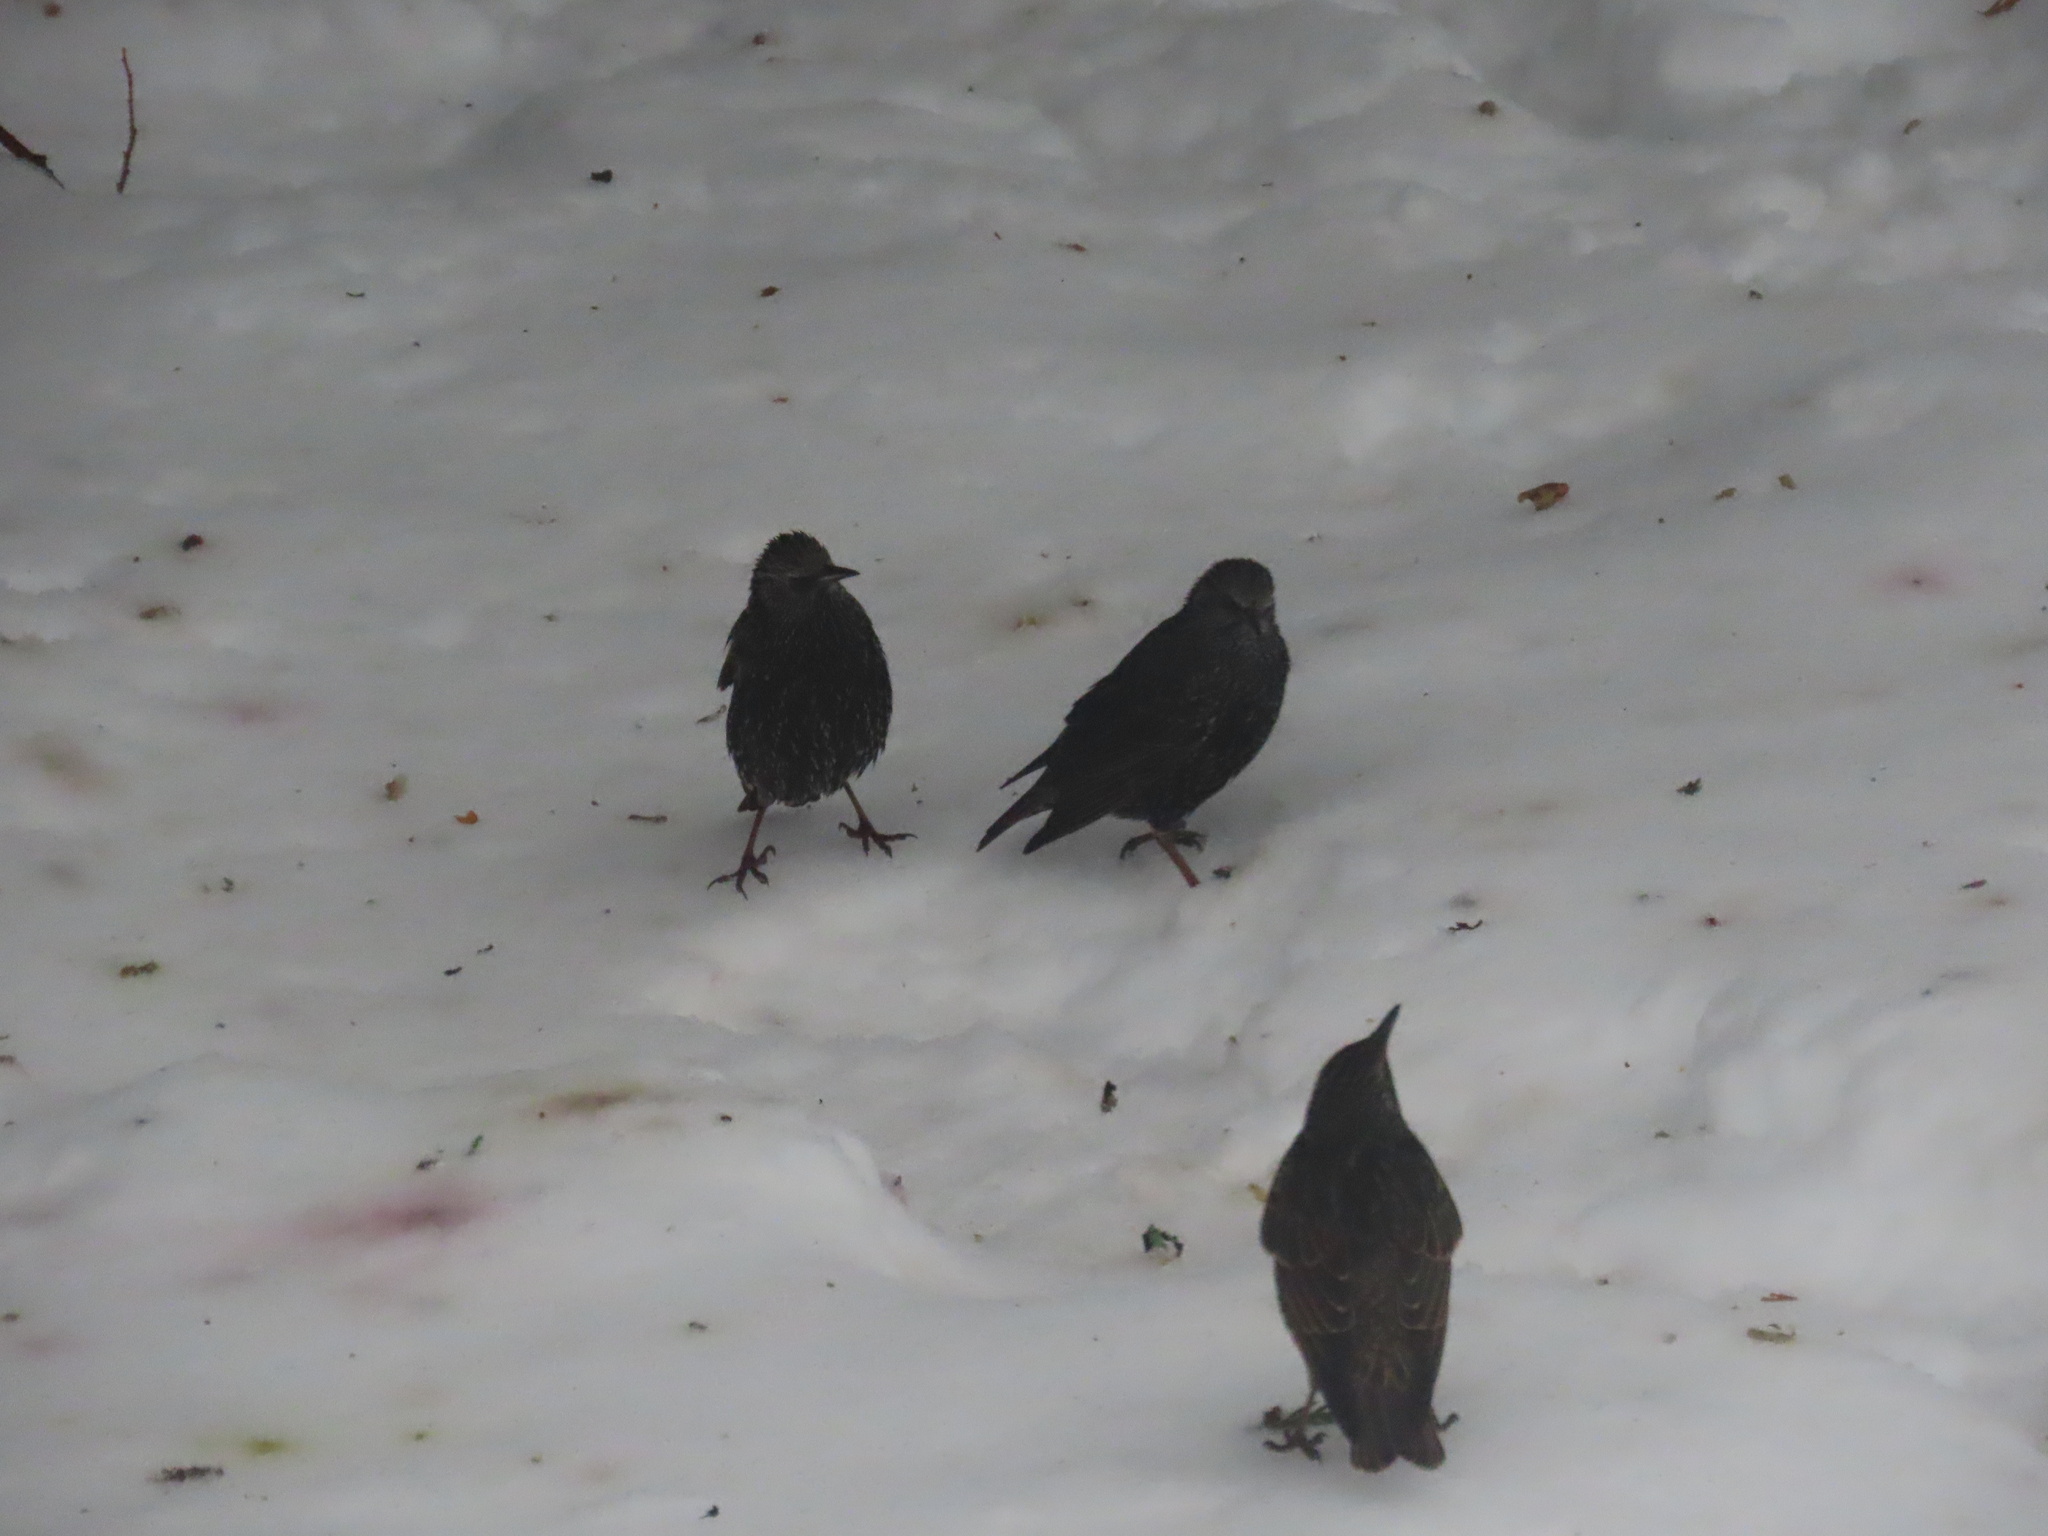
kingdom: Animalia
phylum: Chordata
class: Aves
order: Passeriformes
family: Sturnidae
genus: Sturnus
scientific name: Sturnus vulgaris
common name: Common starling
